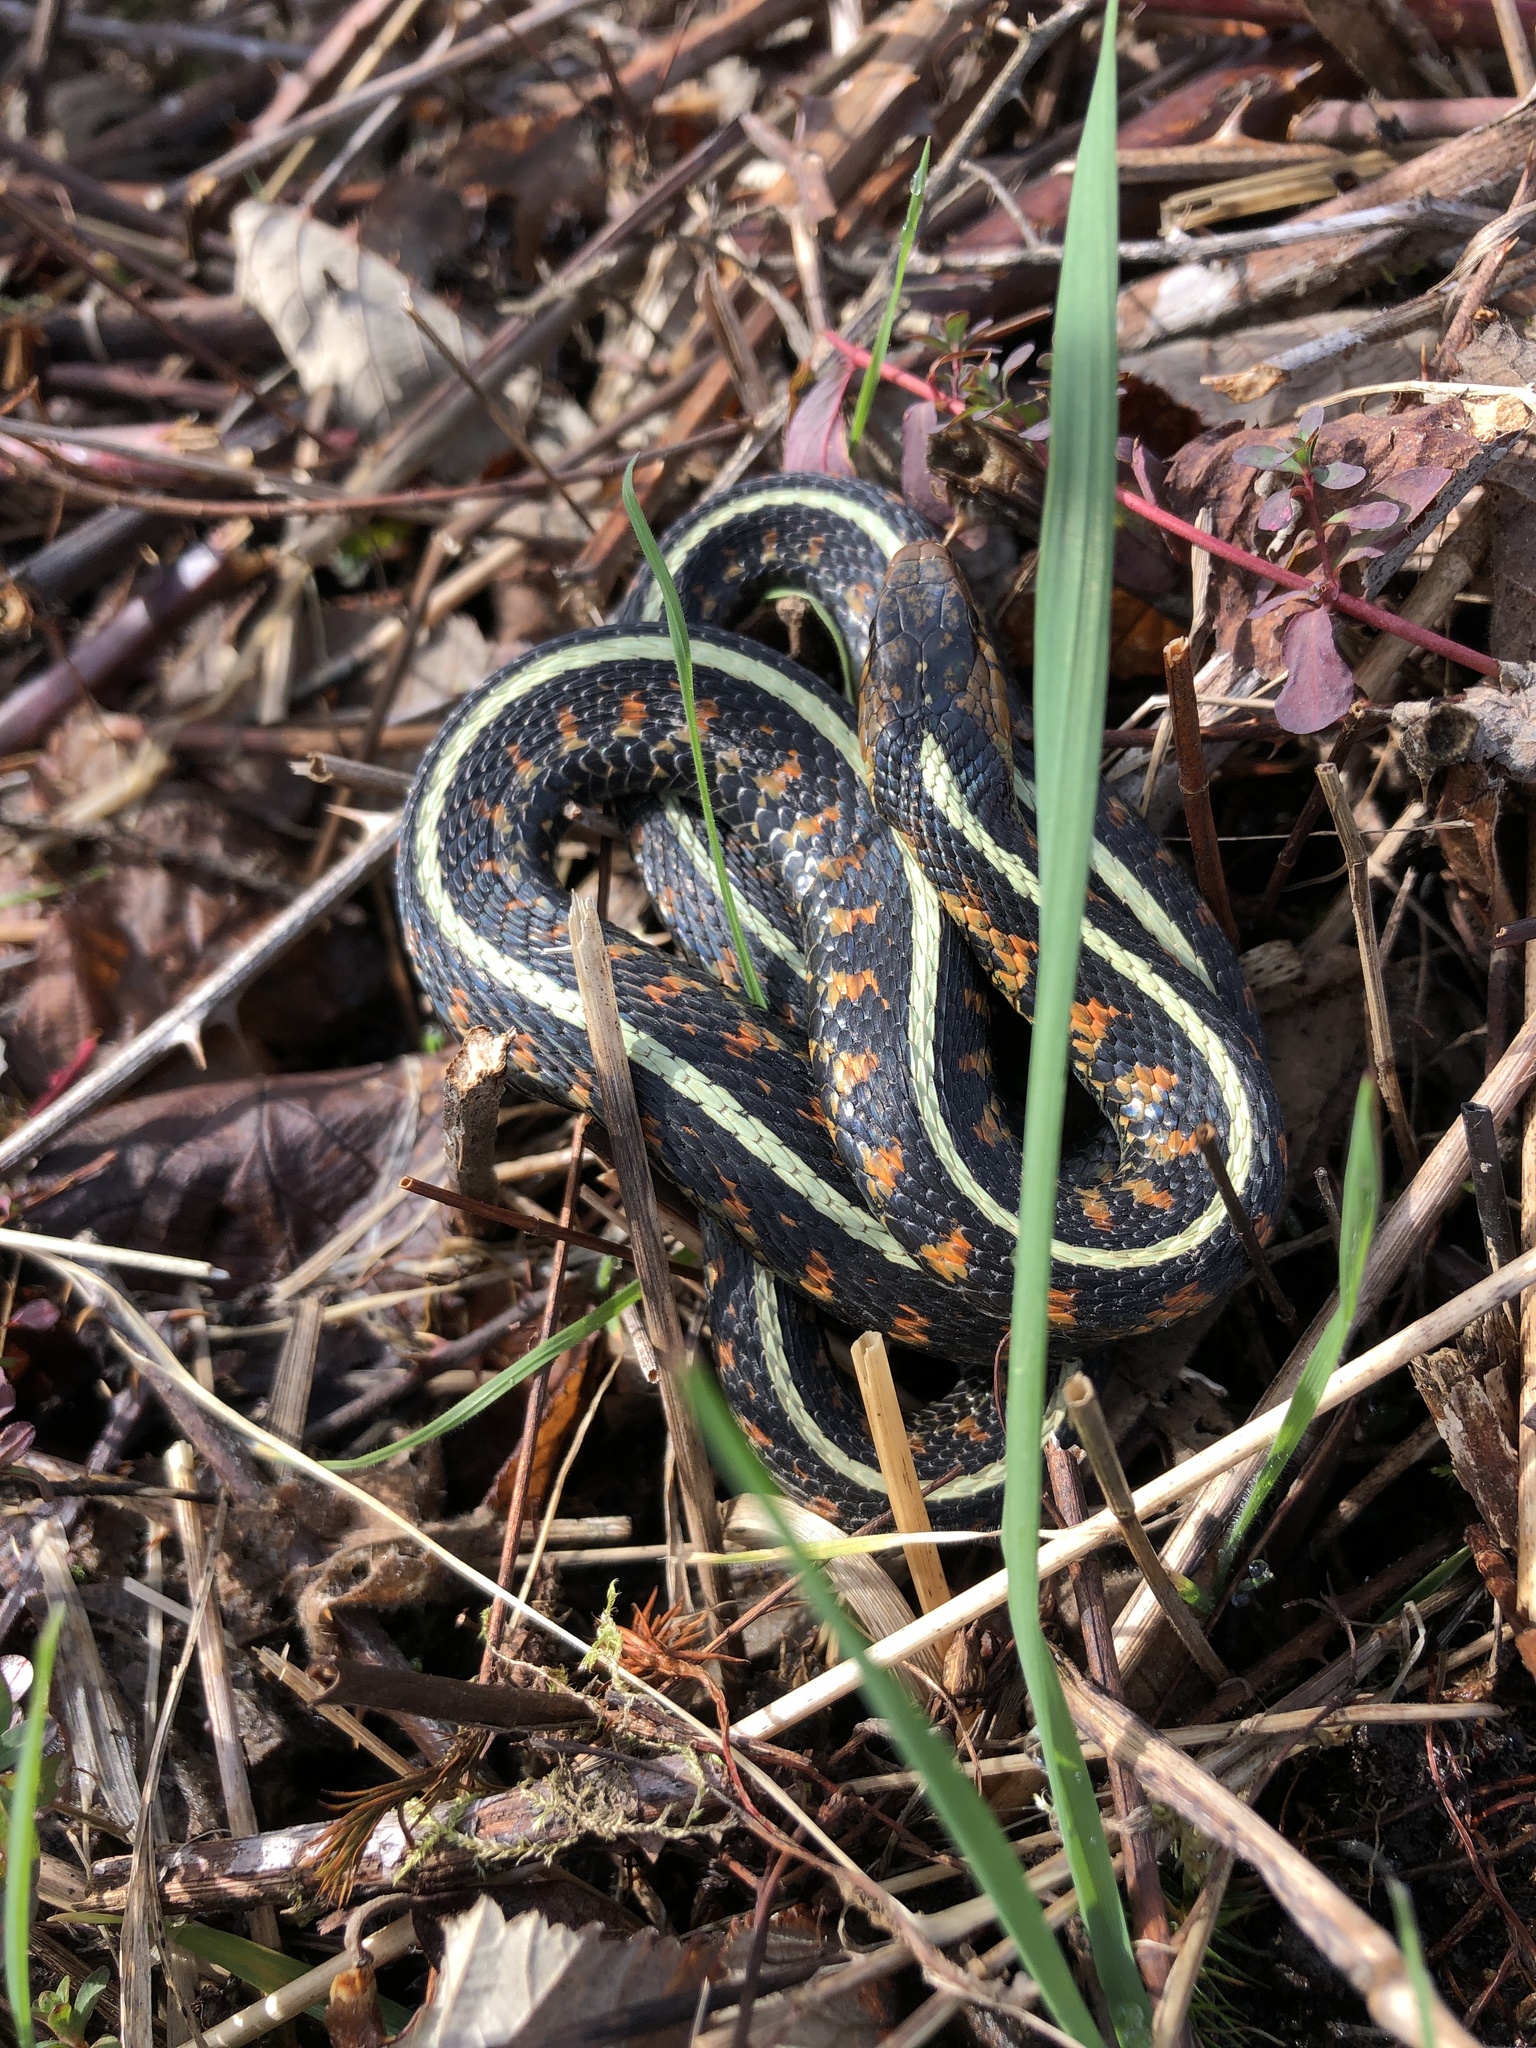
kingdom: Animalia
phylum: Chordata
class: Squamata
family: Colubridae
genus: Thamnophis
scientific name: Thamnophis sirtalis
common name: Common garter snake
